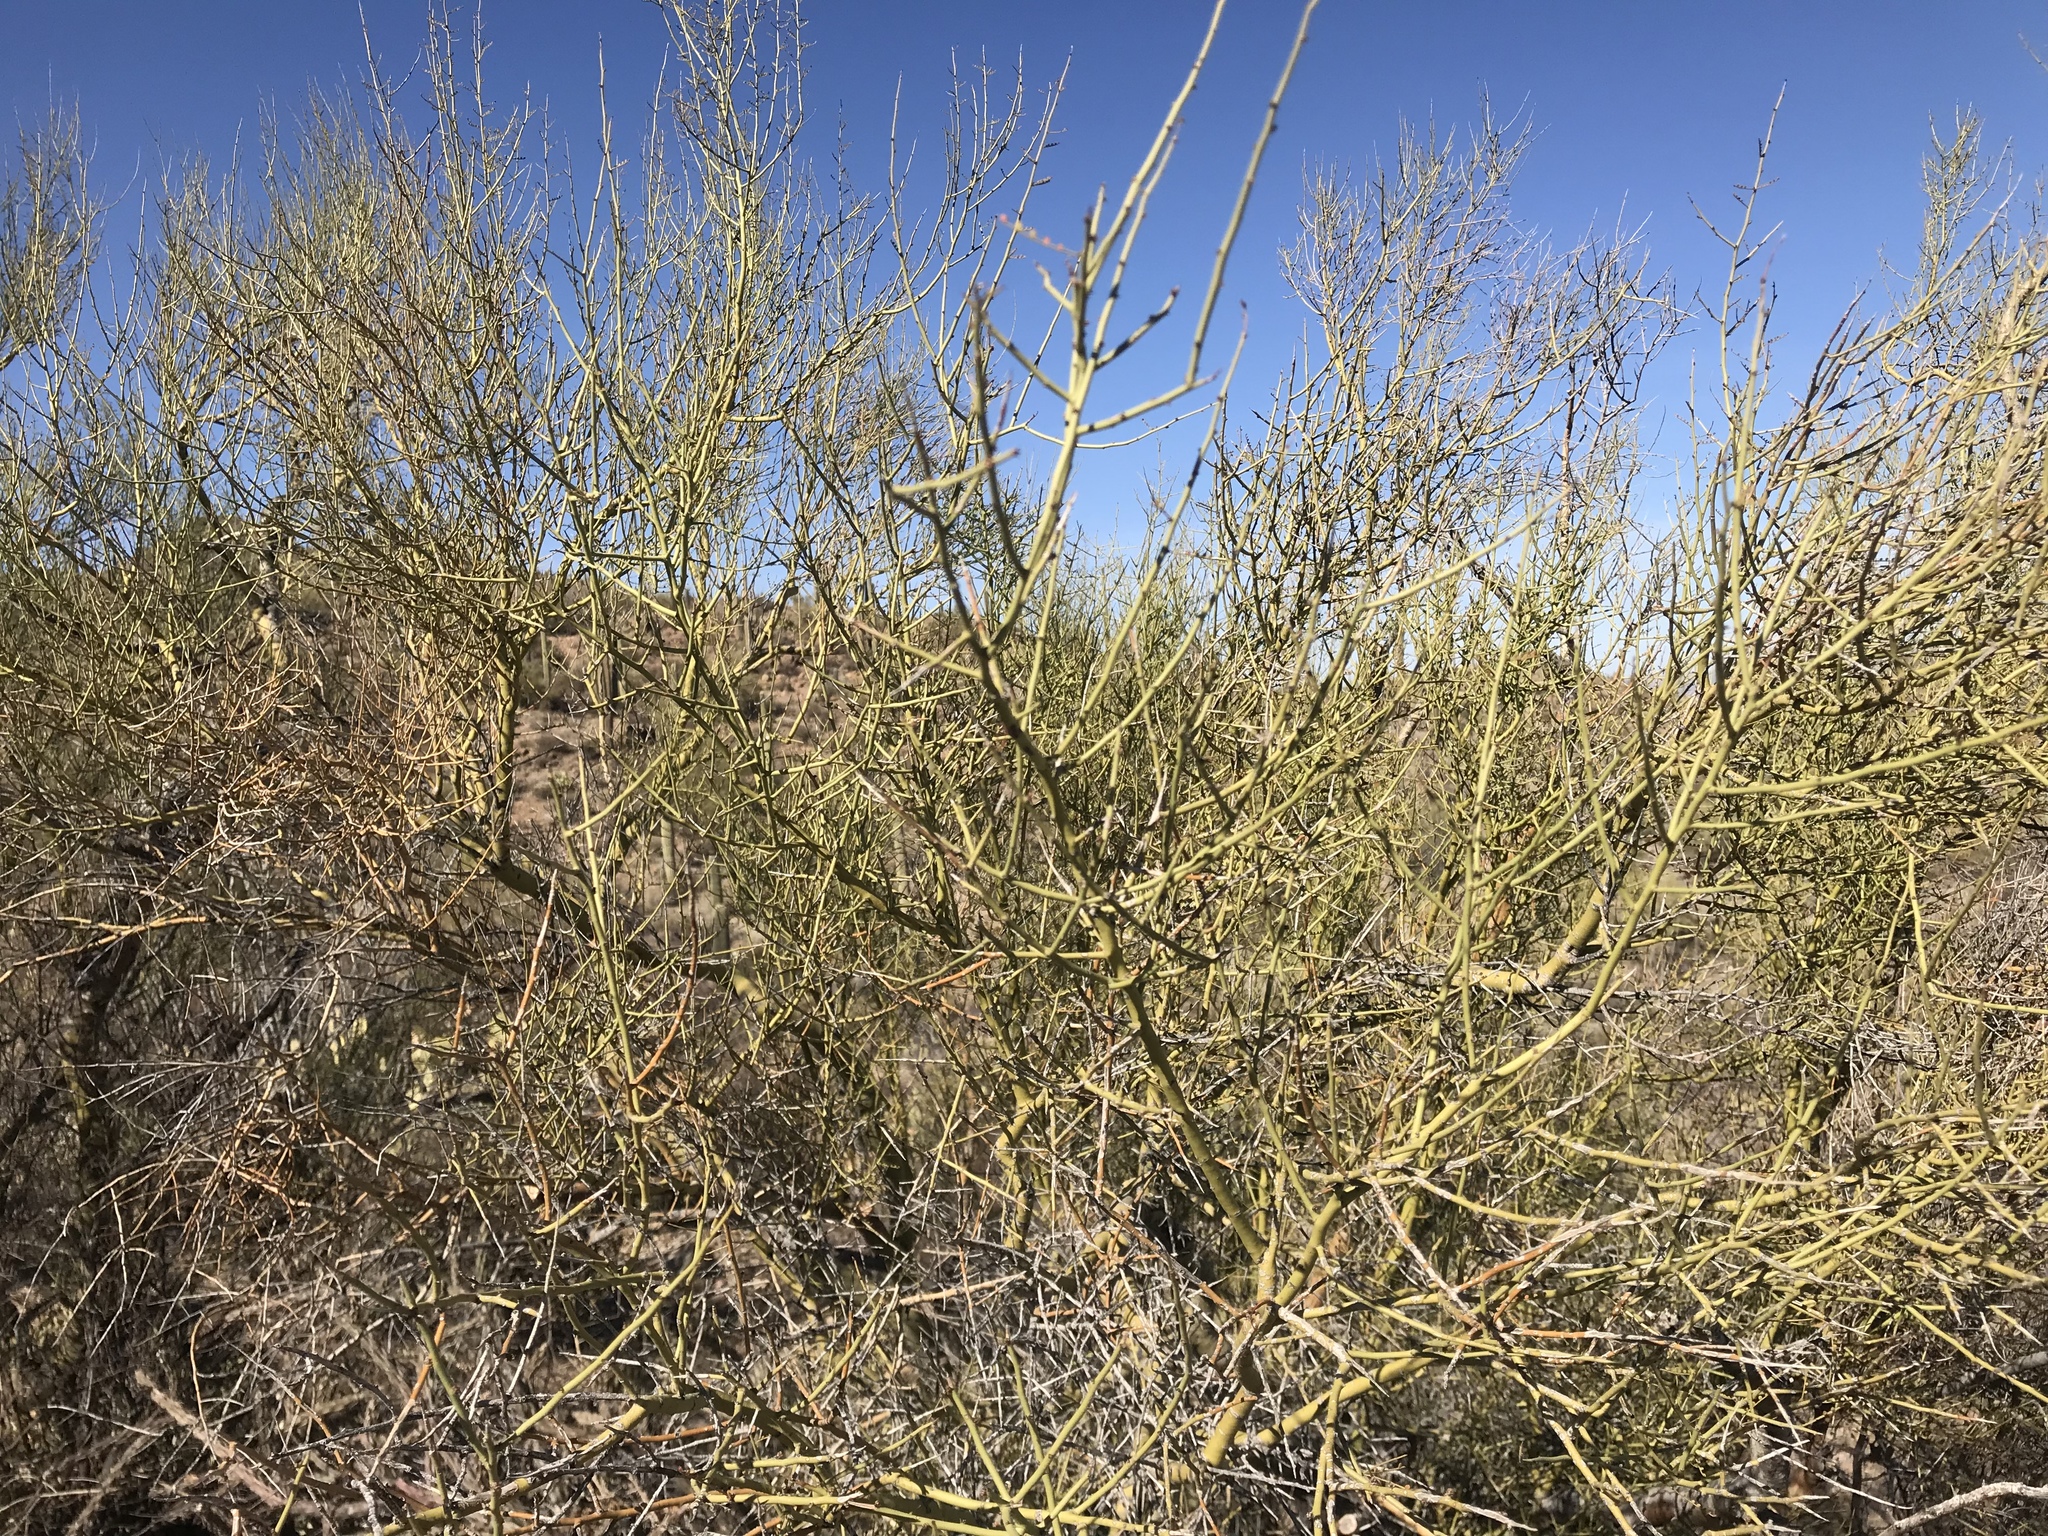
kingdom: Plantae
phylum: Tracheophyta
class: Magnoliopsida
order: Fabales
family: Fabaceae
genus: Parkinsonia
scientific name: Parkinsonia microphylla
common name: Yellow paloverde
